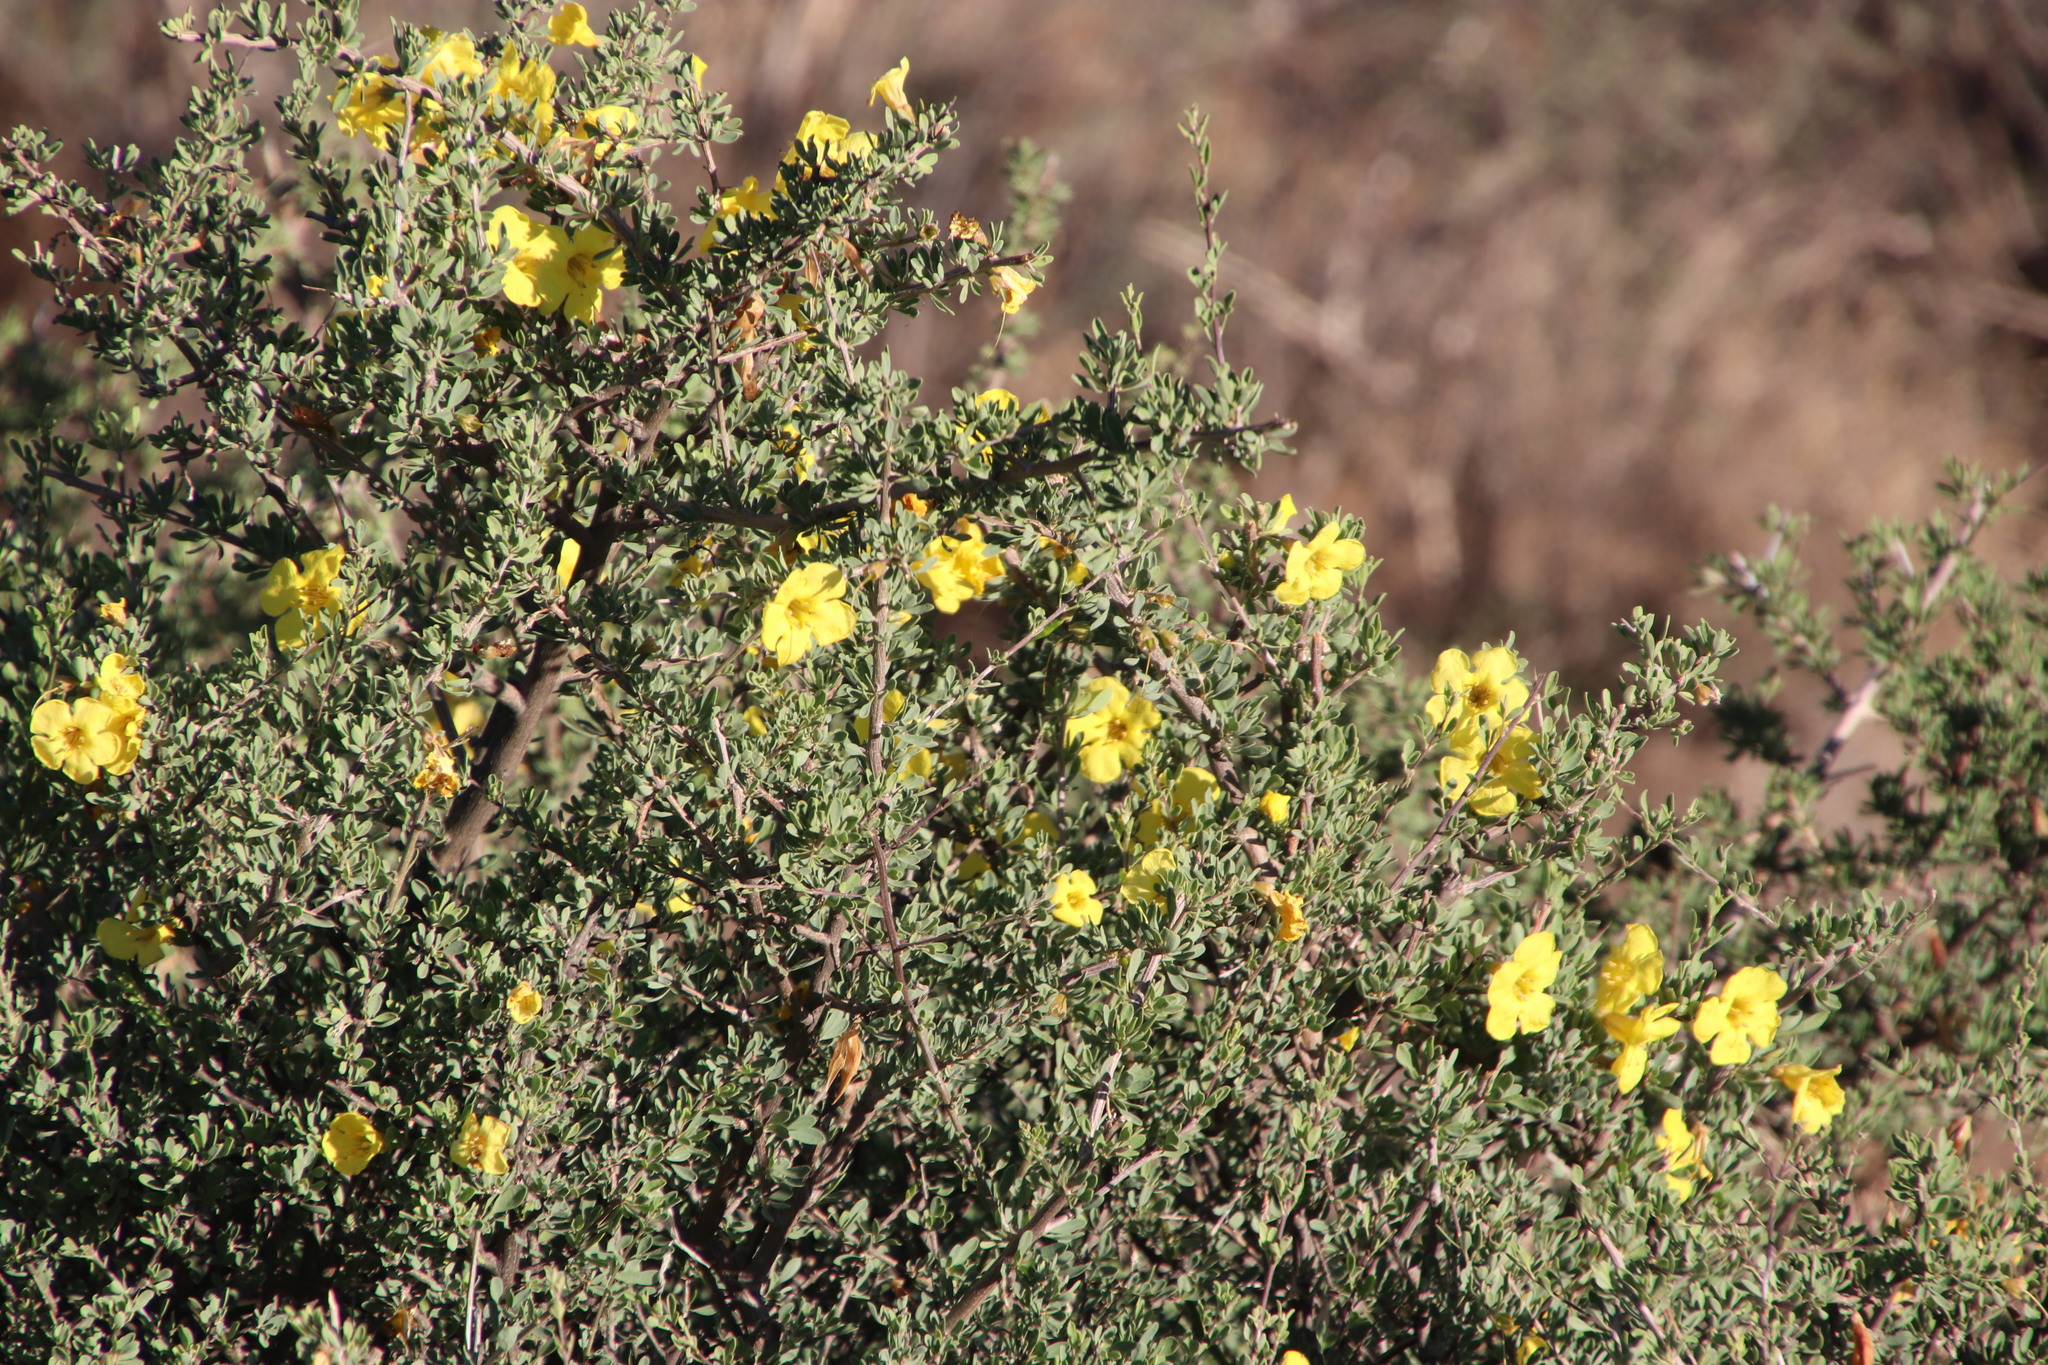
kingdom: Plantae
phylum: Tracheophyta
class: Magnoliopsida
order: Lamiales
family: Bignoniaceae
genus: Rhigozum
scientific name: Rhigozum obovatum
